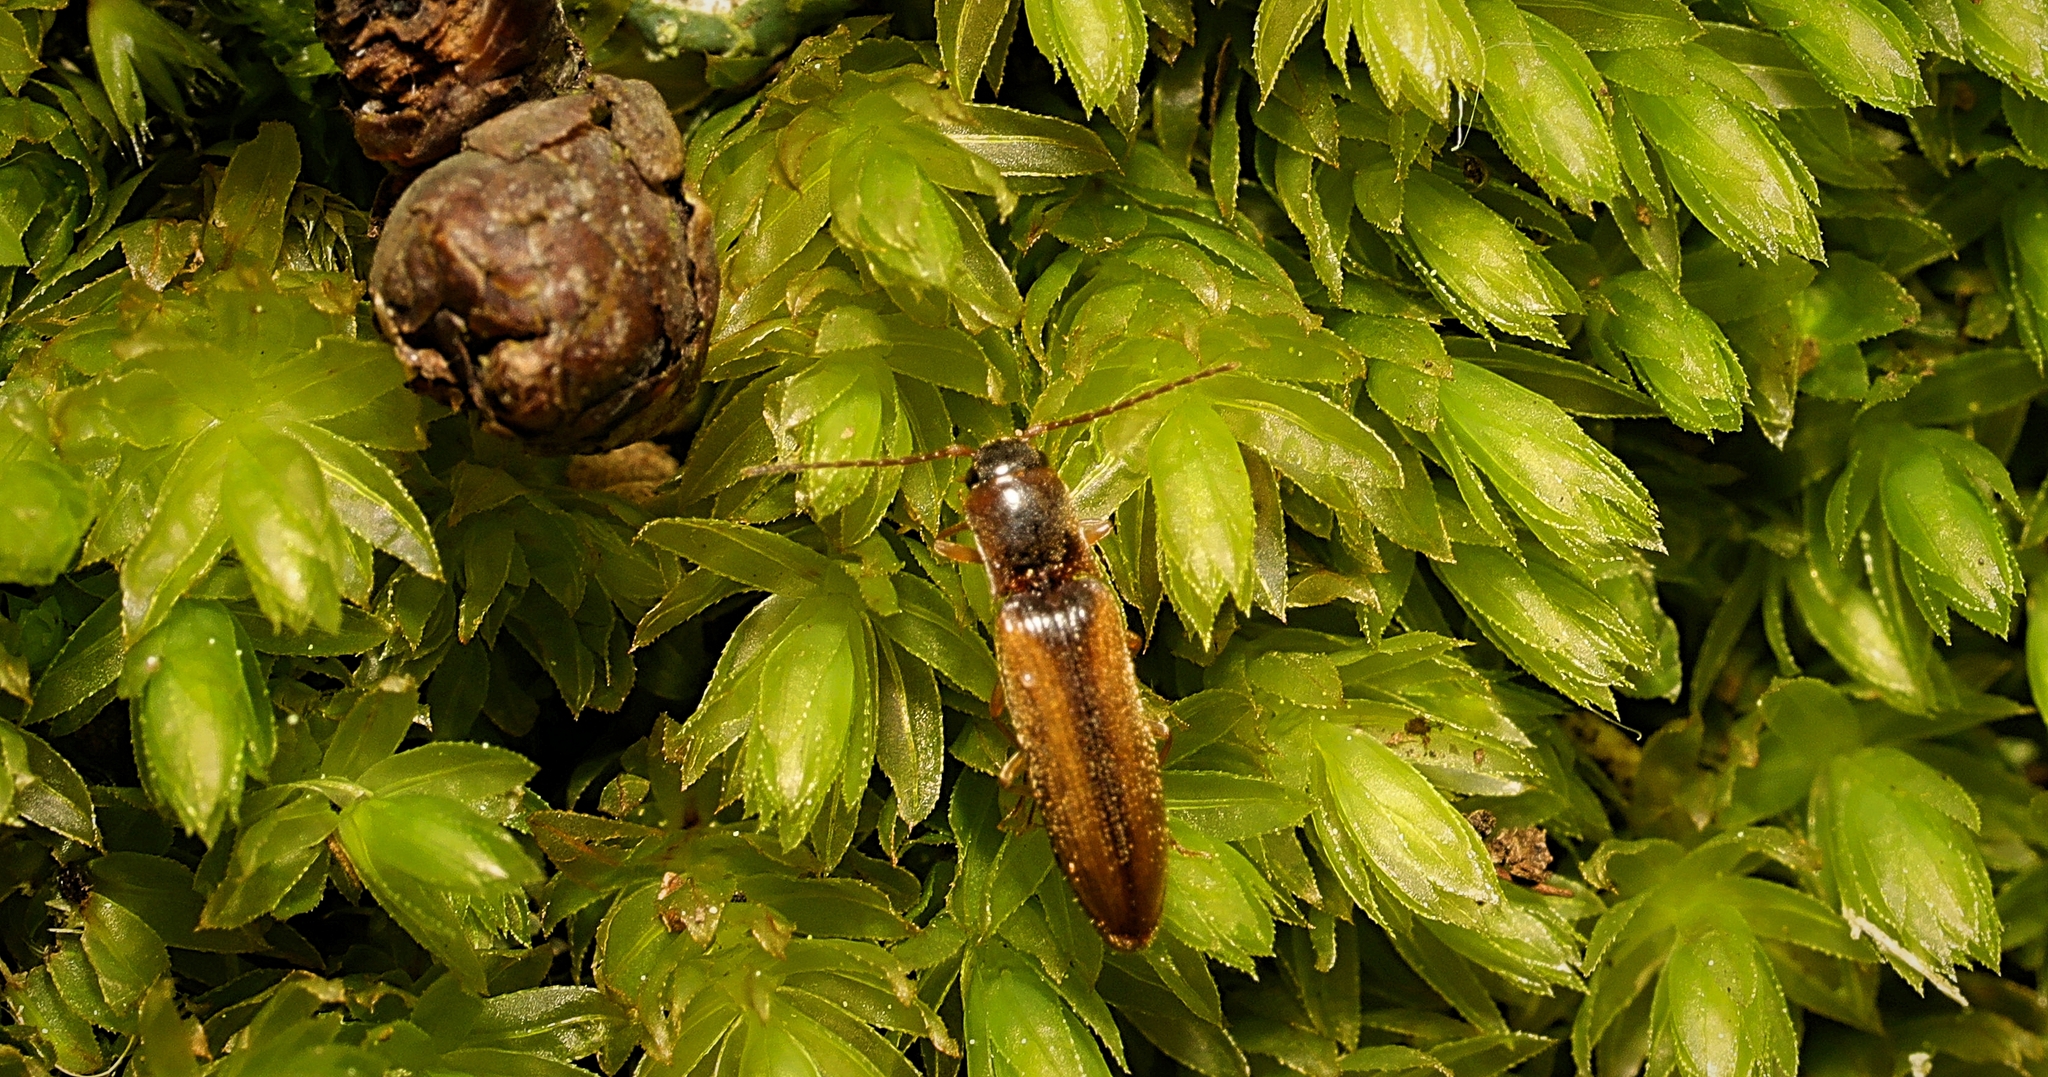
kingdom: Animalia
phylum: Arthropoda
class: Insecta
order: Coleoptera
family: Elateridae
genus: Dalopius
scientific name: Dalopius marginatus
